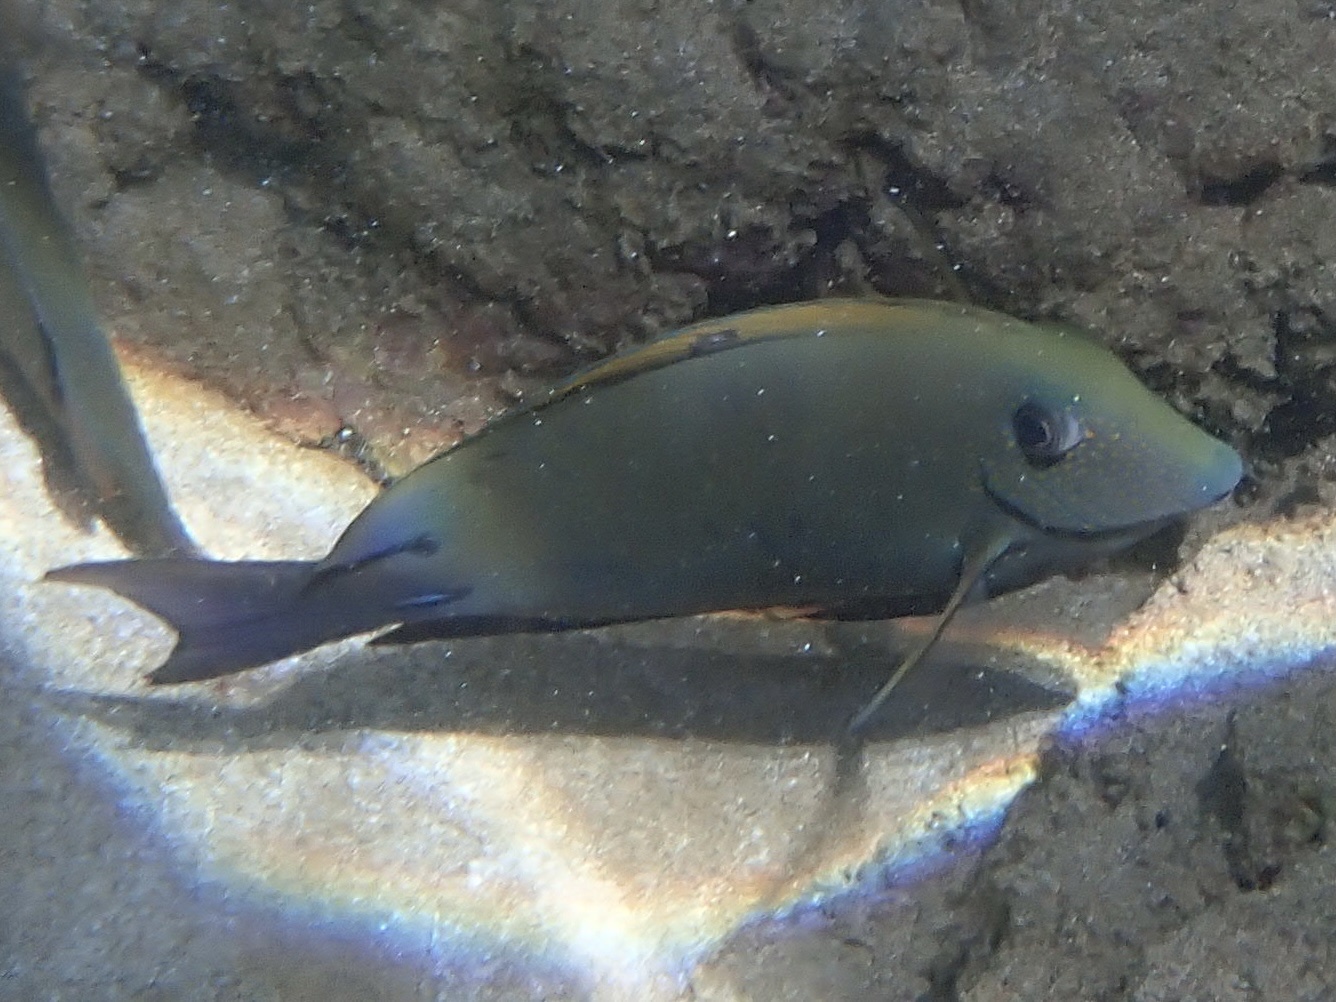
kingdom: Animalia
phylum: Chordata
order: Perciformes
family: Acanthuridae
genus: Acanthurus
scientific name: Acanthurus nigrofuscus
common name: Blackspot surgeonfish
